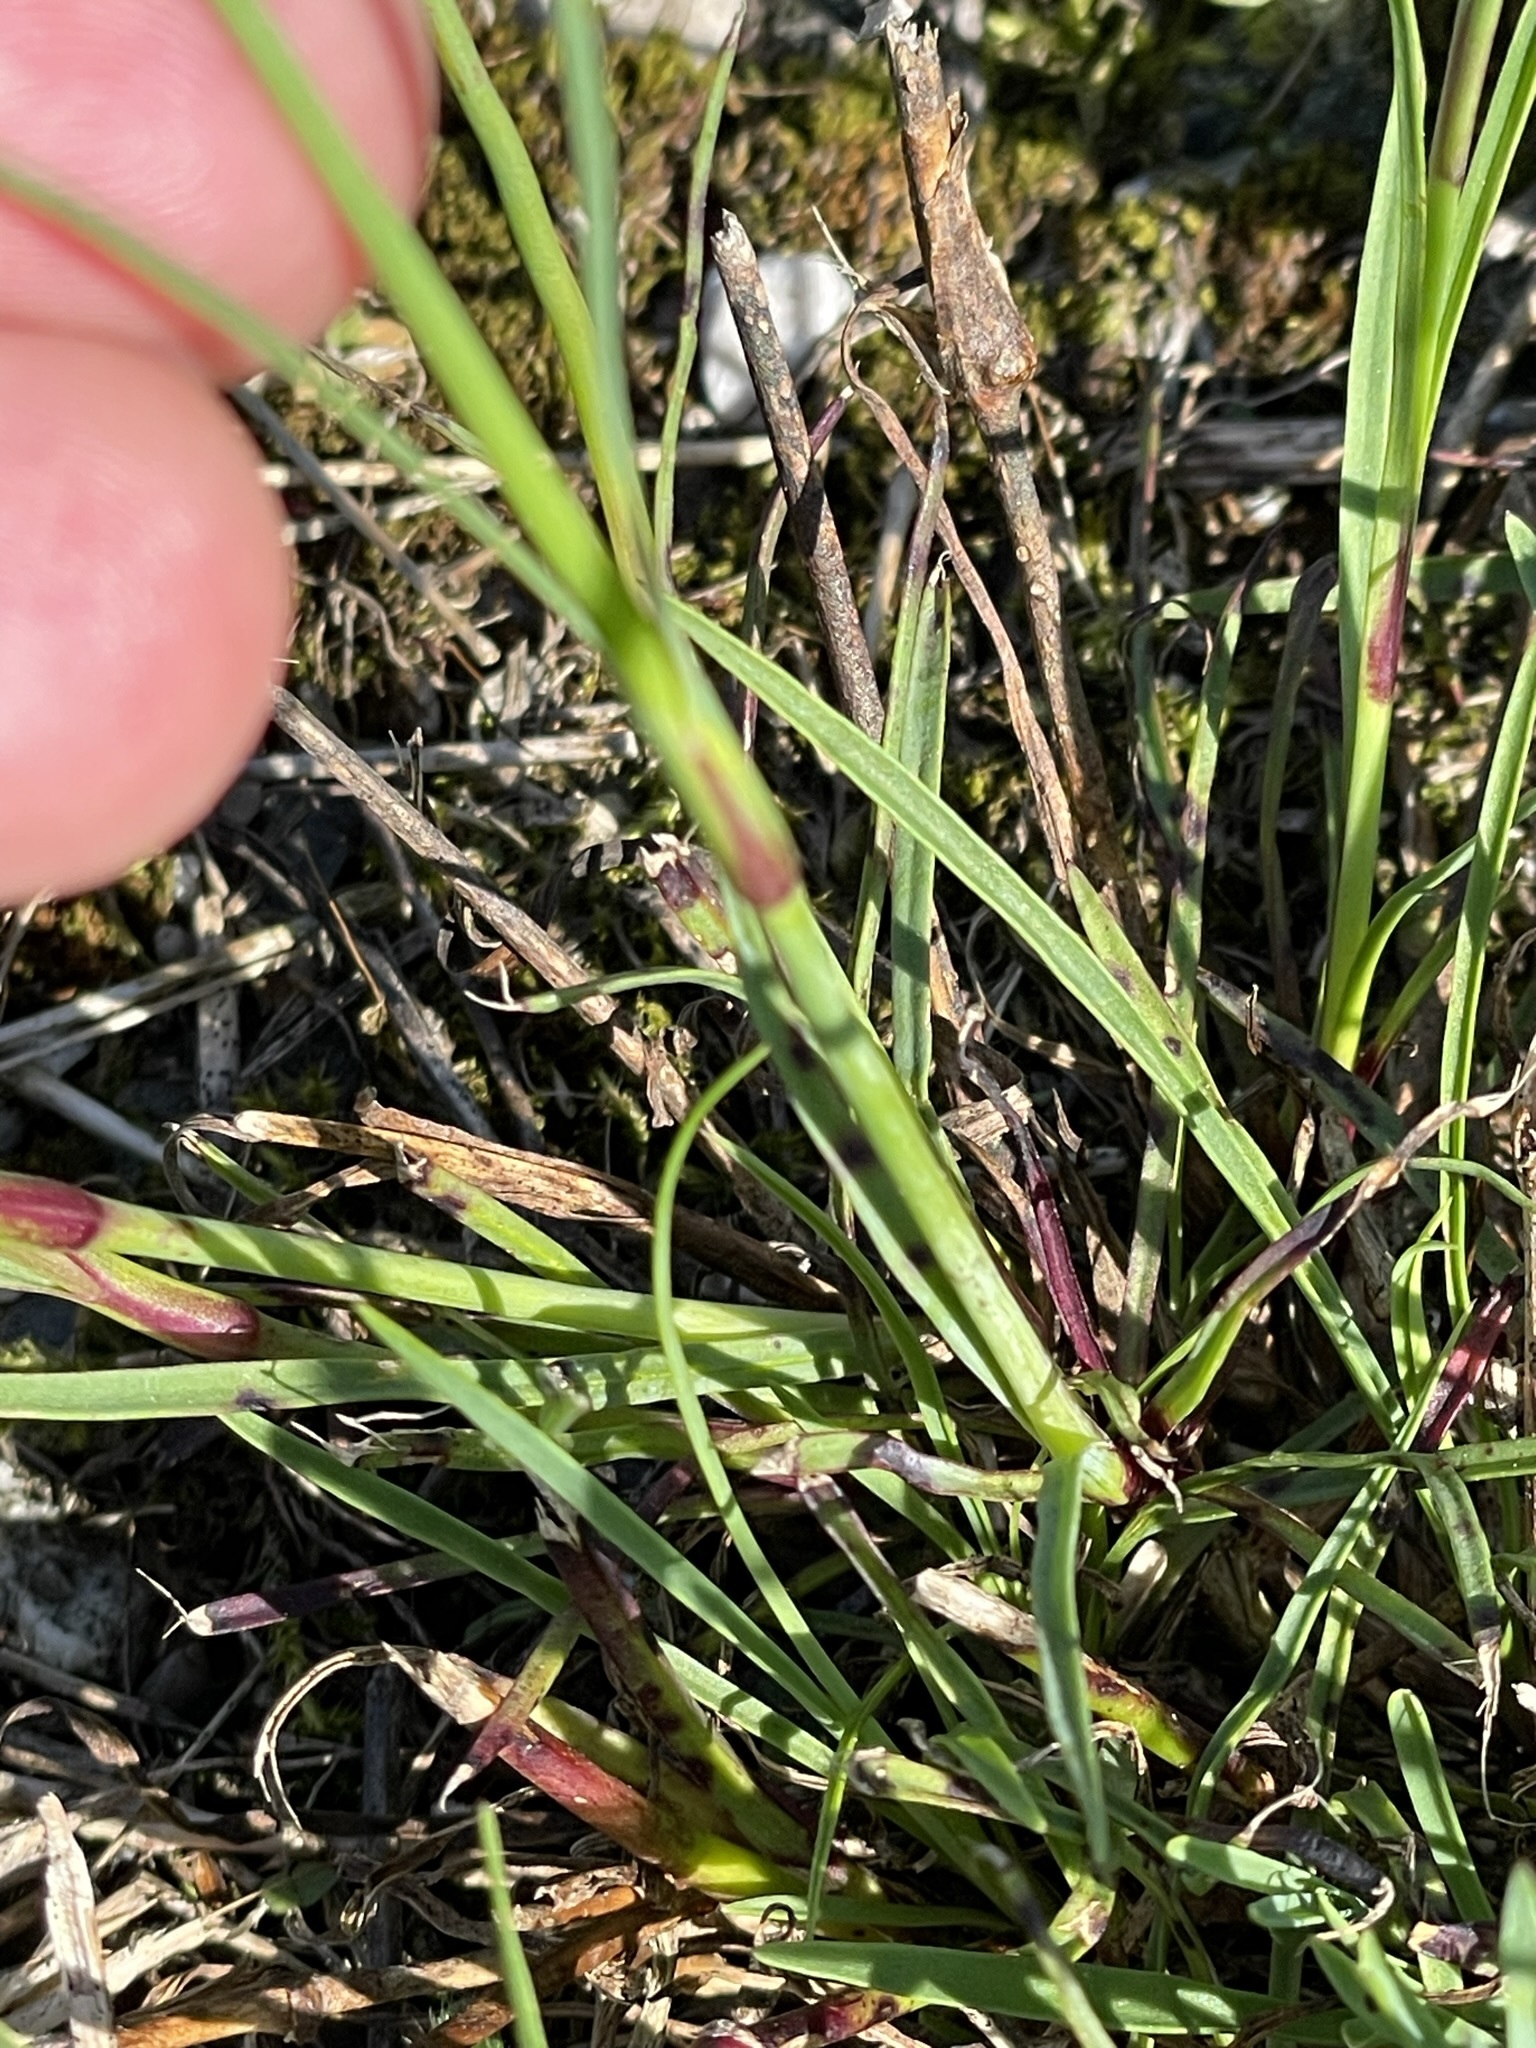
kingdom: Plantae
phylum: Tracheophyta
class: Magnoliopsida
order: Caryophyllales
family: Caryophyllaceae
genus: Dianthus
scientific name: Dianthus carthusianorum
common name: Carthusian pink
